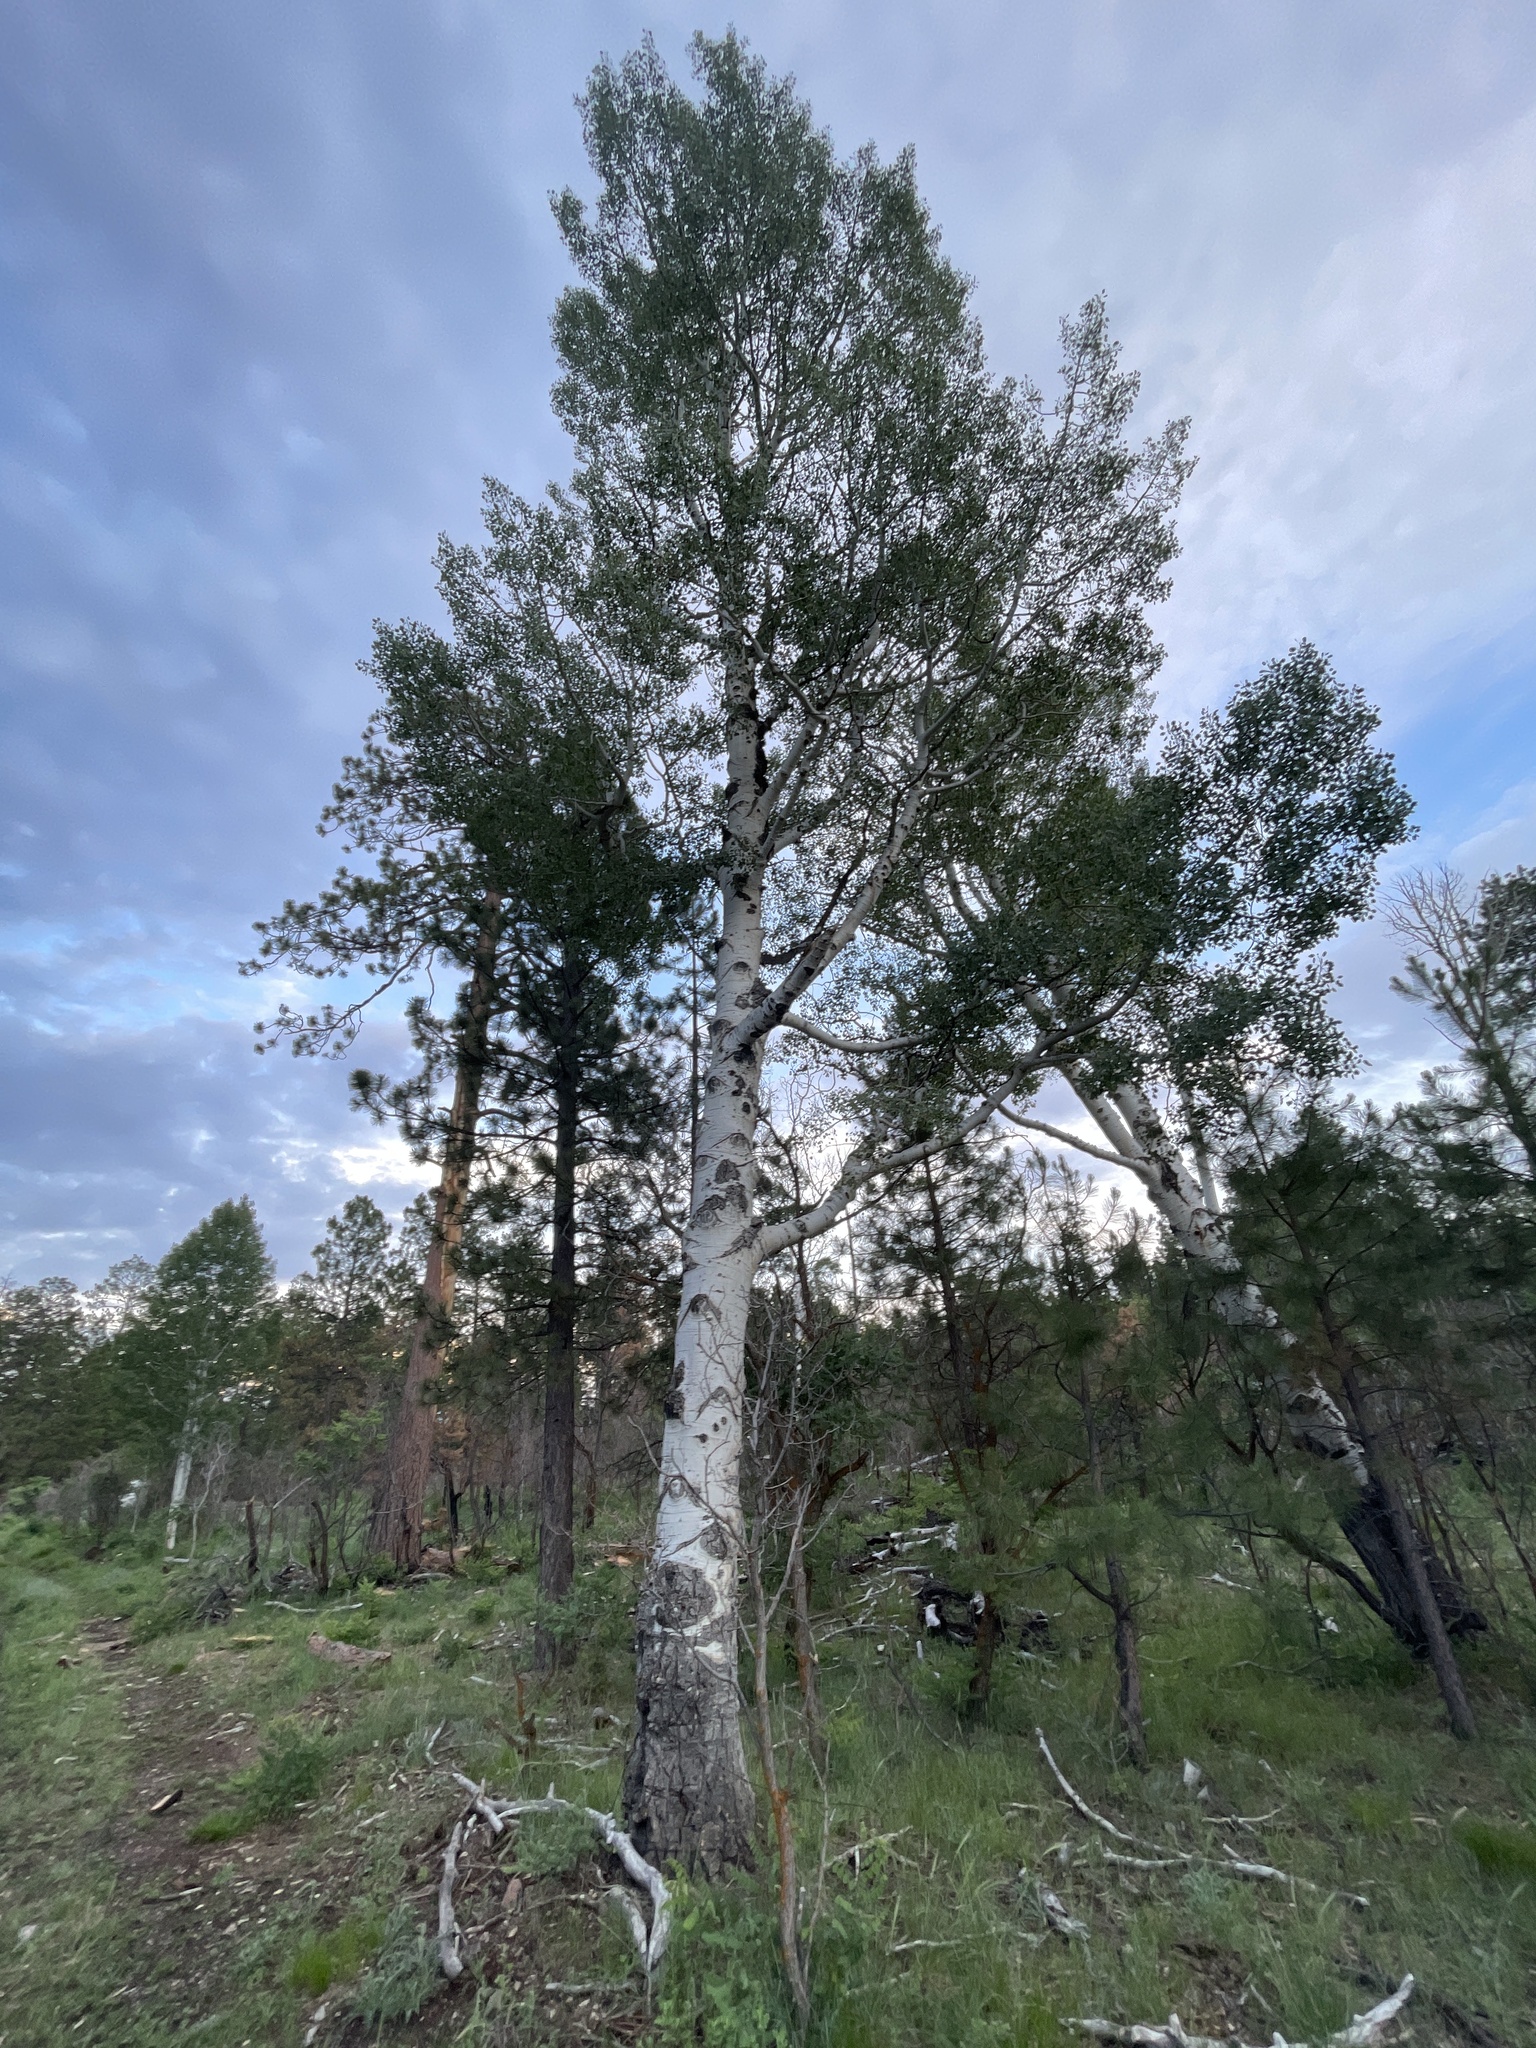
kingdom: Plantae
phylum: Tracheophyta
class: Magnoliopsida
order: Malpighiales
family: Salicaceae
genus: Populus
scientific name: Populus tremuloides
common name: Quaking aspen
